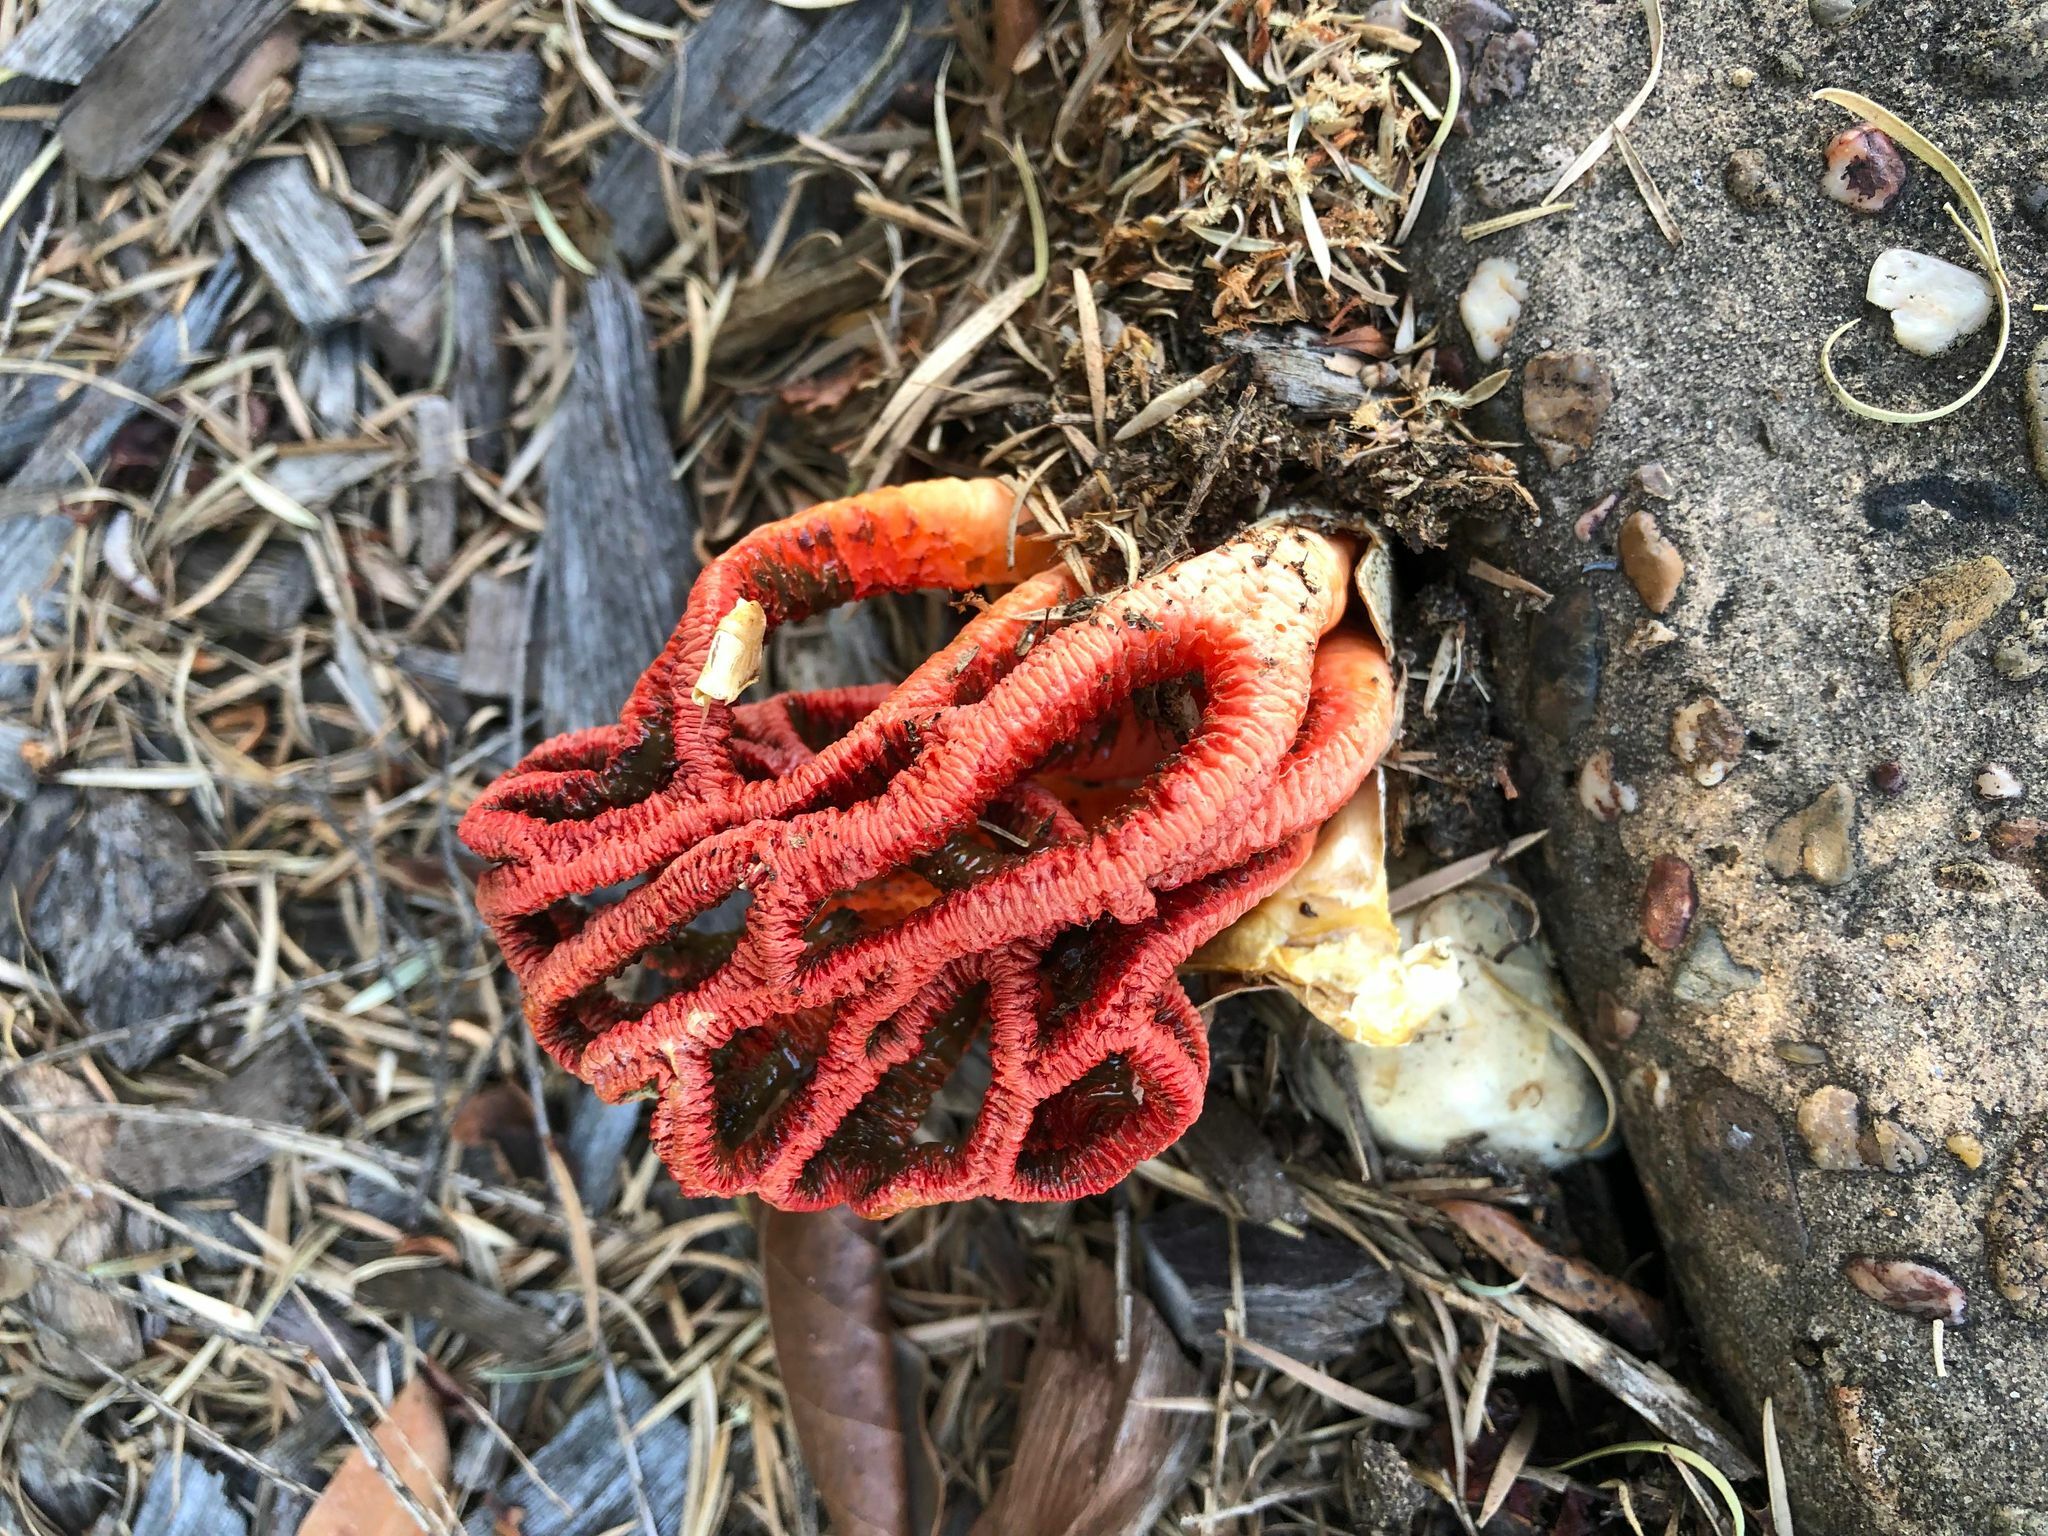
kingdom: Fungi
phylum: Basidiomycota
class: Agaricomycetes
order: Phallales
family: Phallaceae
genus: Colus
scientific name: Colus pusillus
